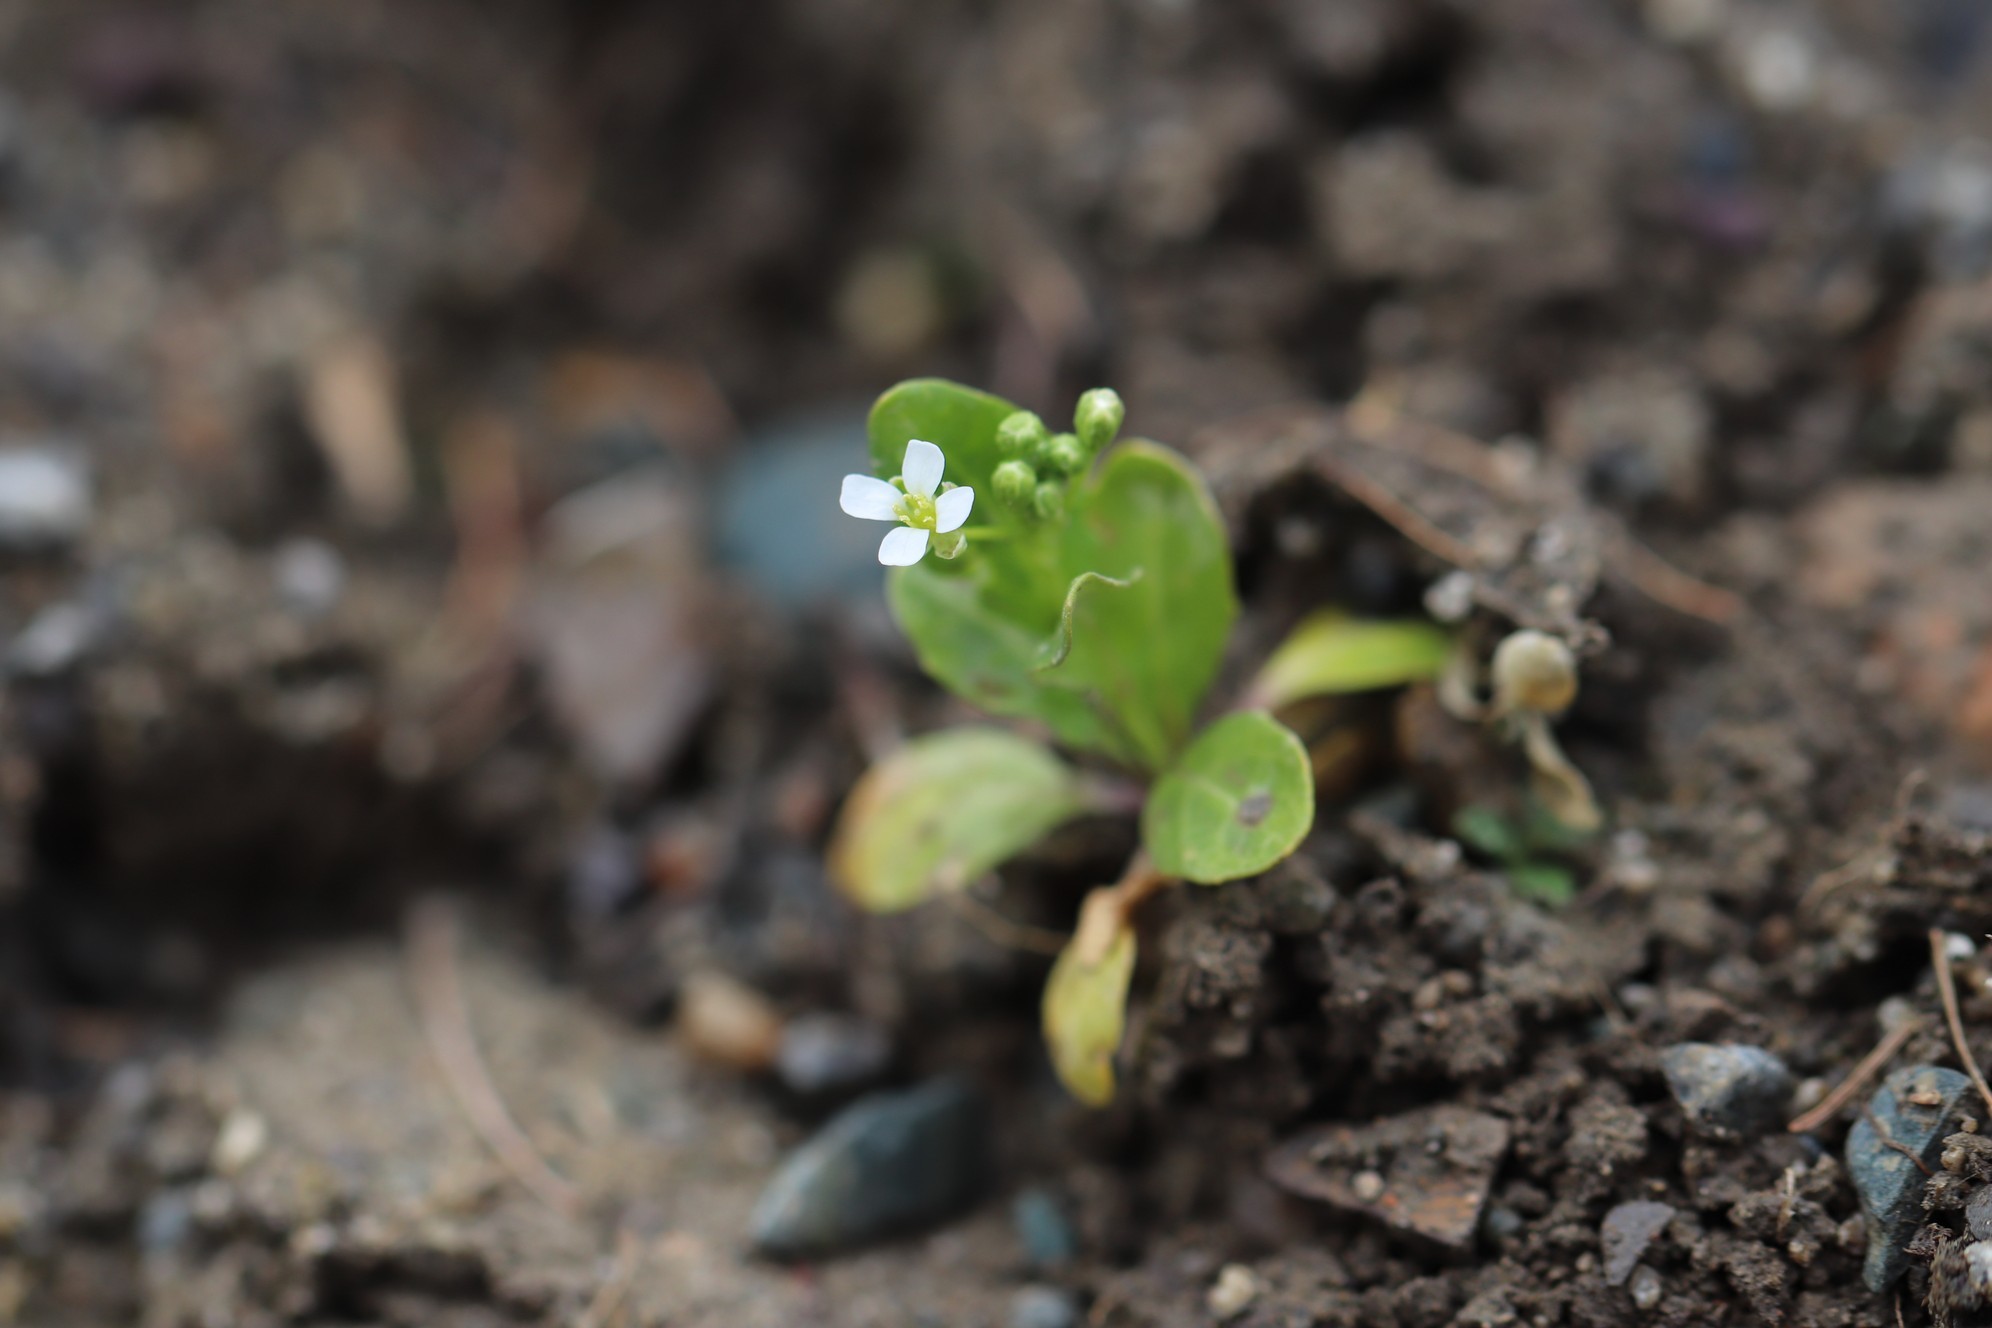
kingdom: Plantae
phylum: Tracheophyta
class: Magnoliopsida
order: Brassicales
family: Brassicaceae
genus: Thlaspi
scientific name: Thlaspi arvense
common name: Field pennycress
